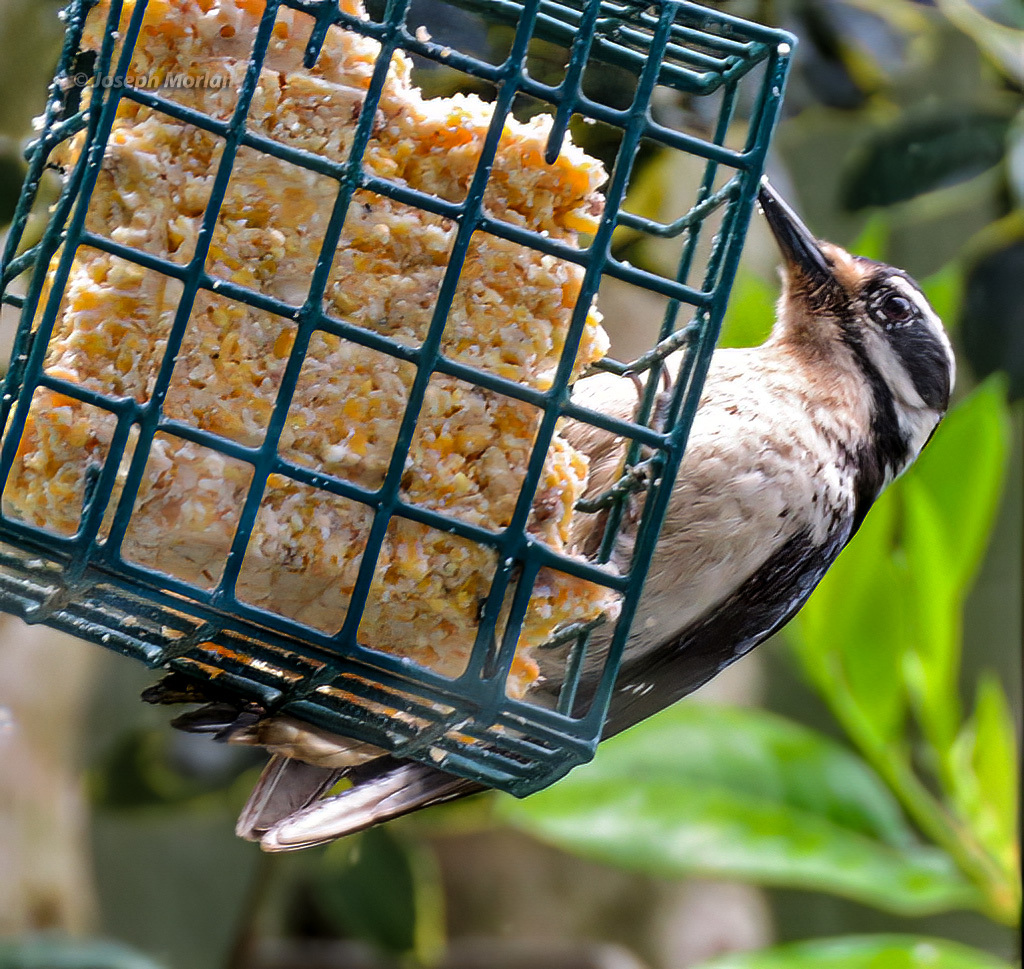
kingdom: Animalia
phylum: Chordata
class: Aves
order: Piciformes
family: Picidae
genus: Leuconotopicus
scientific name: Leuconotopicus villosus
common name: Hairy woodpecker
